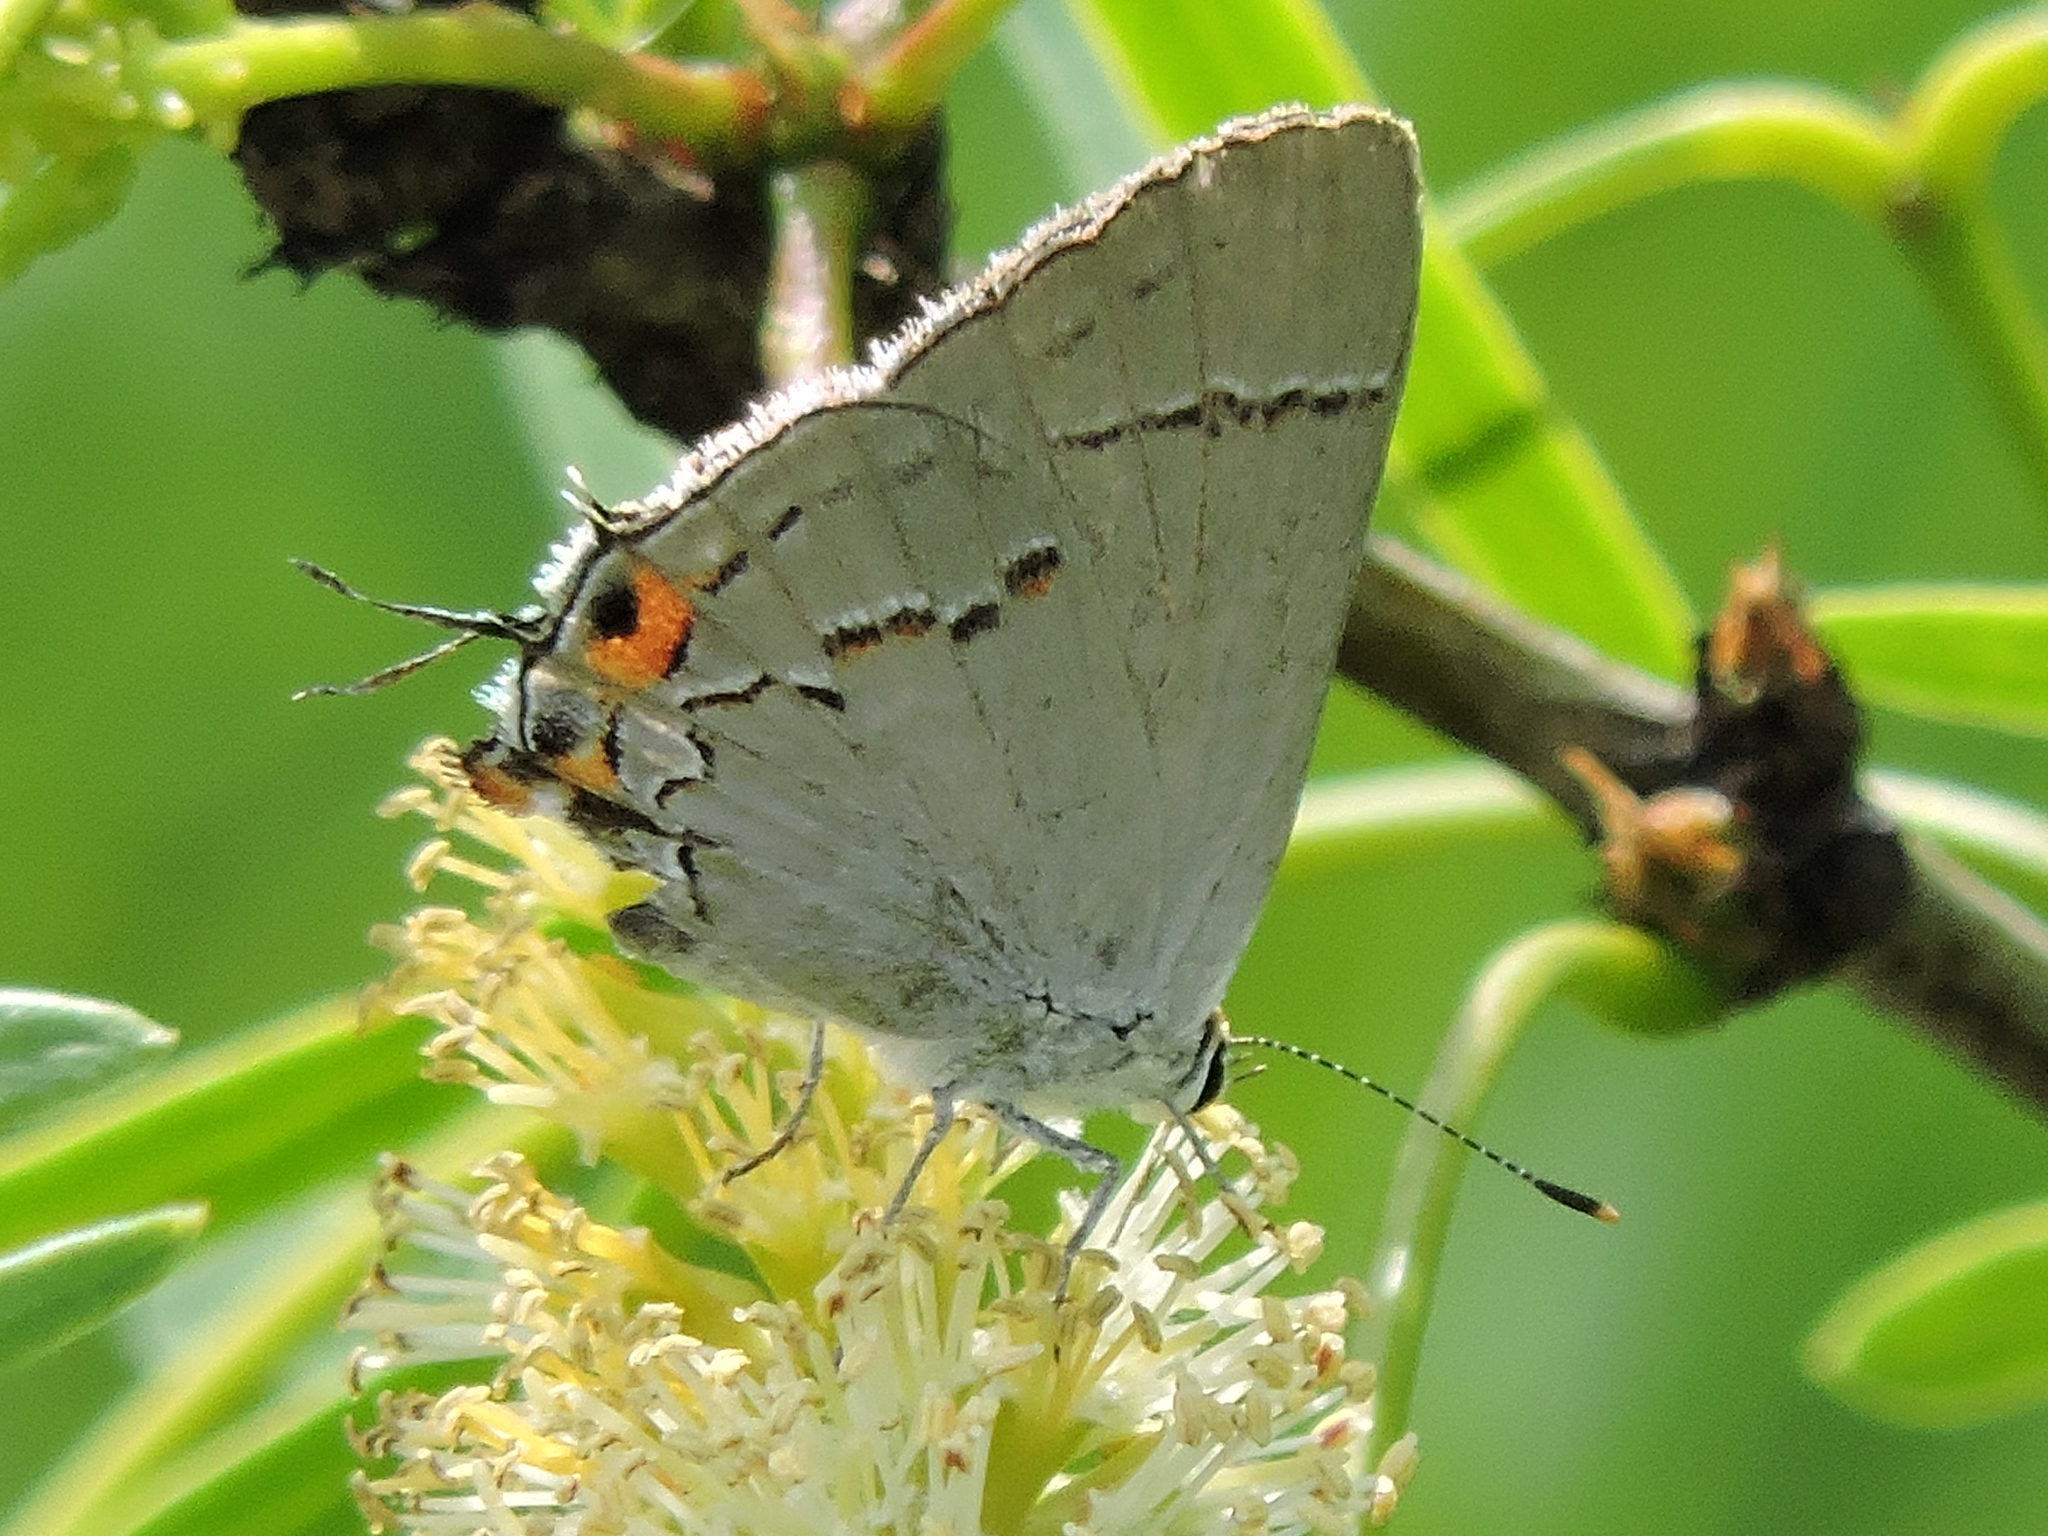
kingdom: Animalia
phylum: Arthropoda
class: Insecta
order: Lepidoptera
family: Lycaenidae
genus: Strymon
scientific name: Strymon melinus
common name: Gray hairstreak
